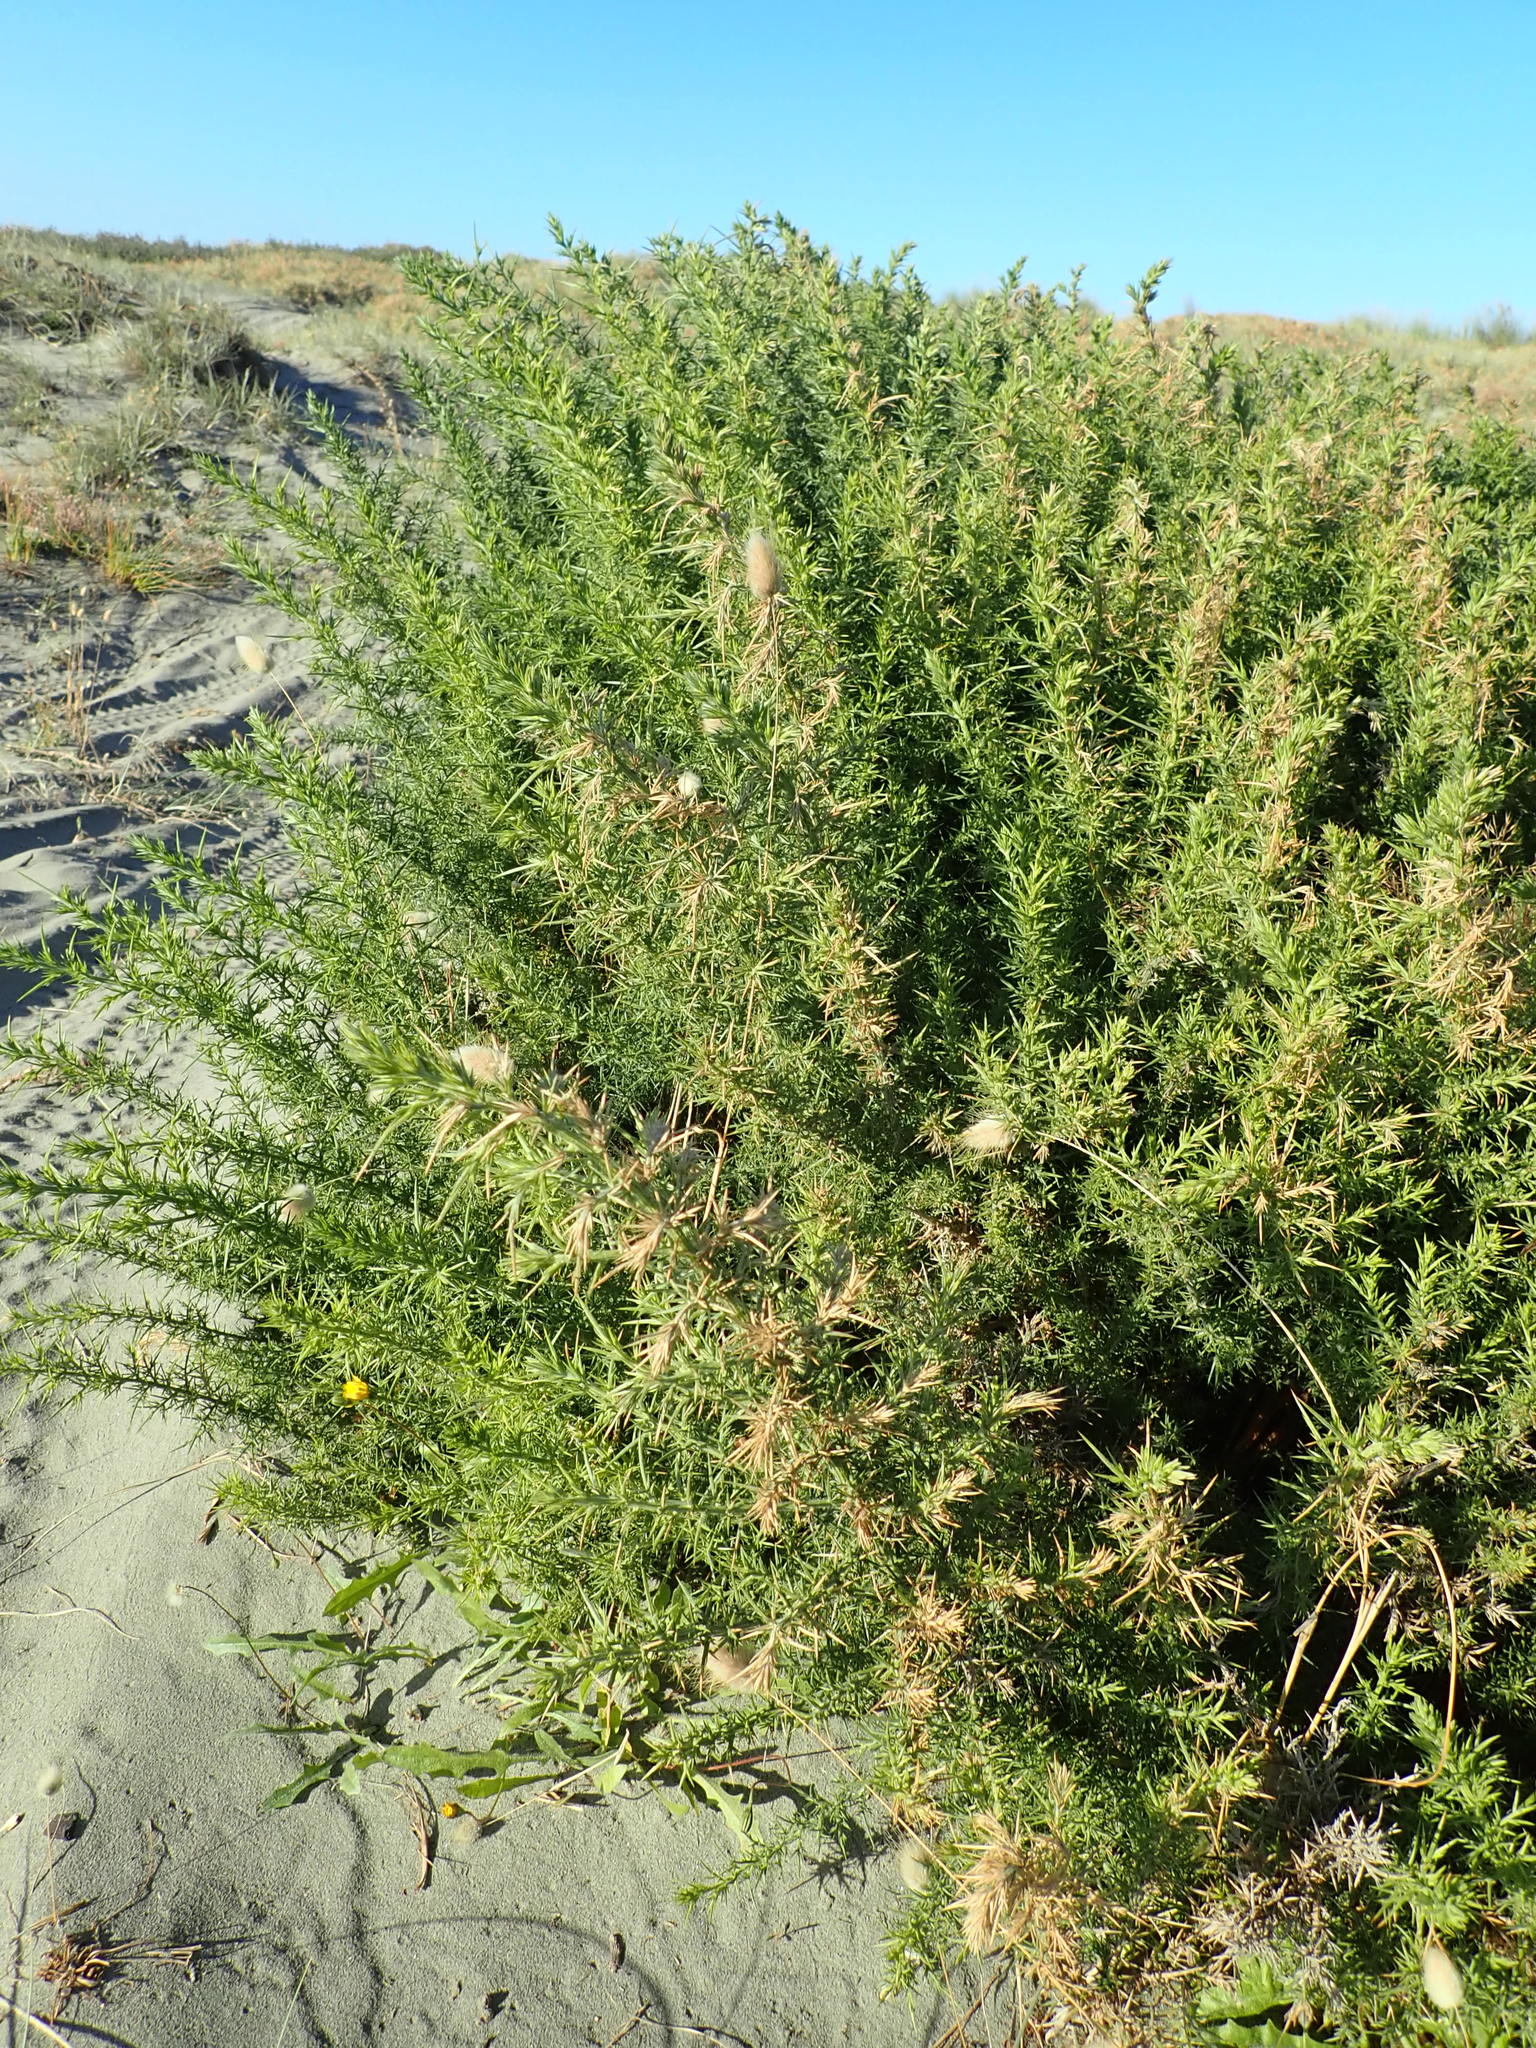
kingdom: Plantae
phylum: Tracheophyta
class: Magnoliopsida
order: Fabales
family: Fabaceae
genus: Ulex
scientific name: Ulex europaeus
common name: Common gorse
